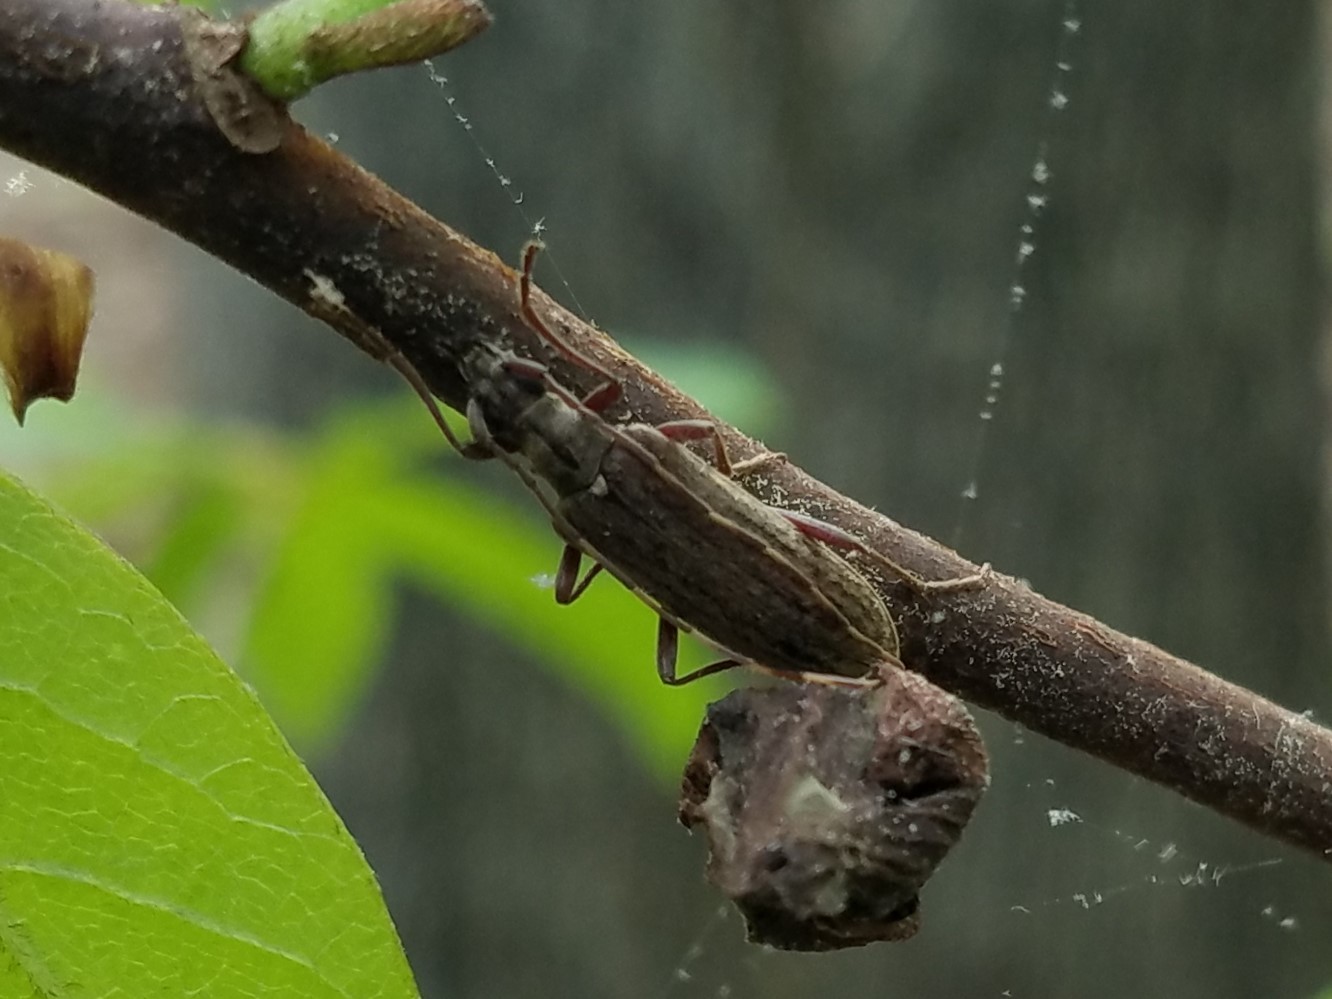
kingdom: Animalia
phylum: Arthropoda
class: Insecta
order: Coleoptera
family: Cerambycidae
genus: Centrodera
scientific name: Centrodera sublineata
